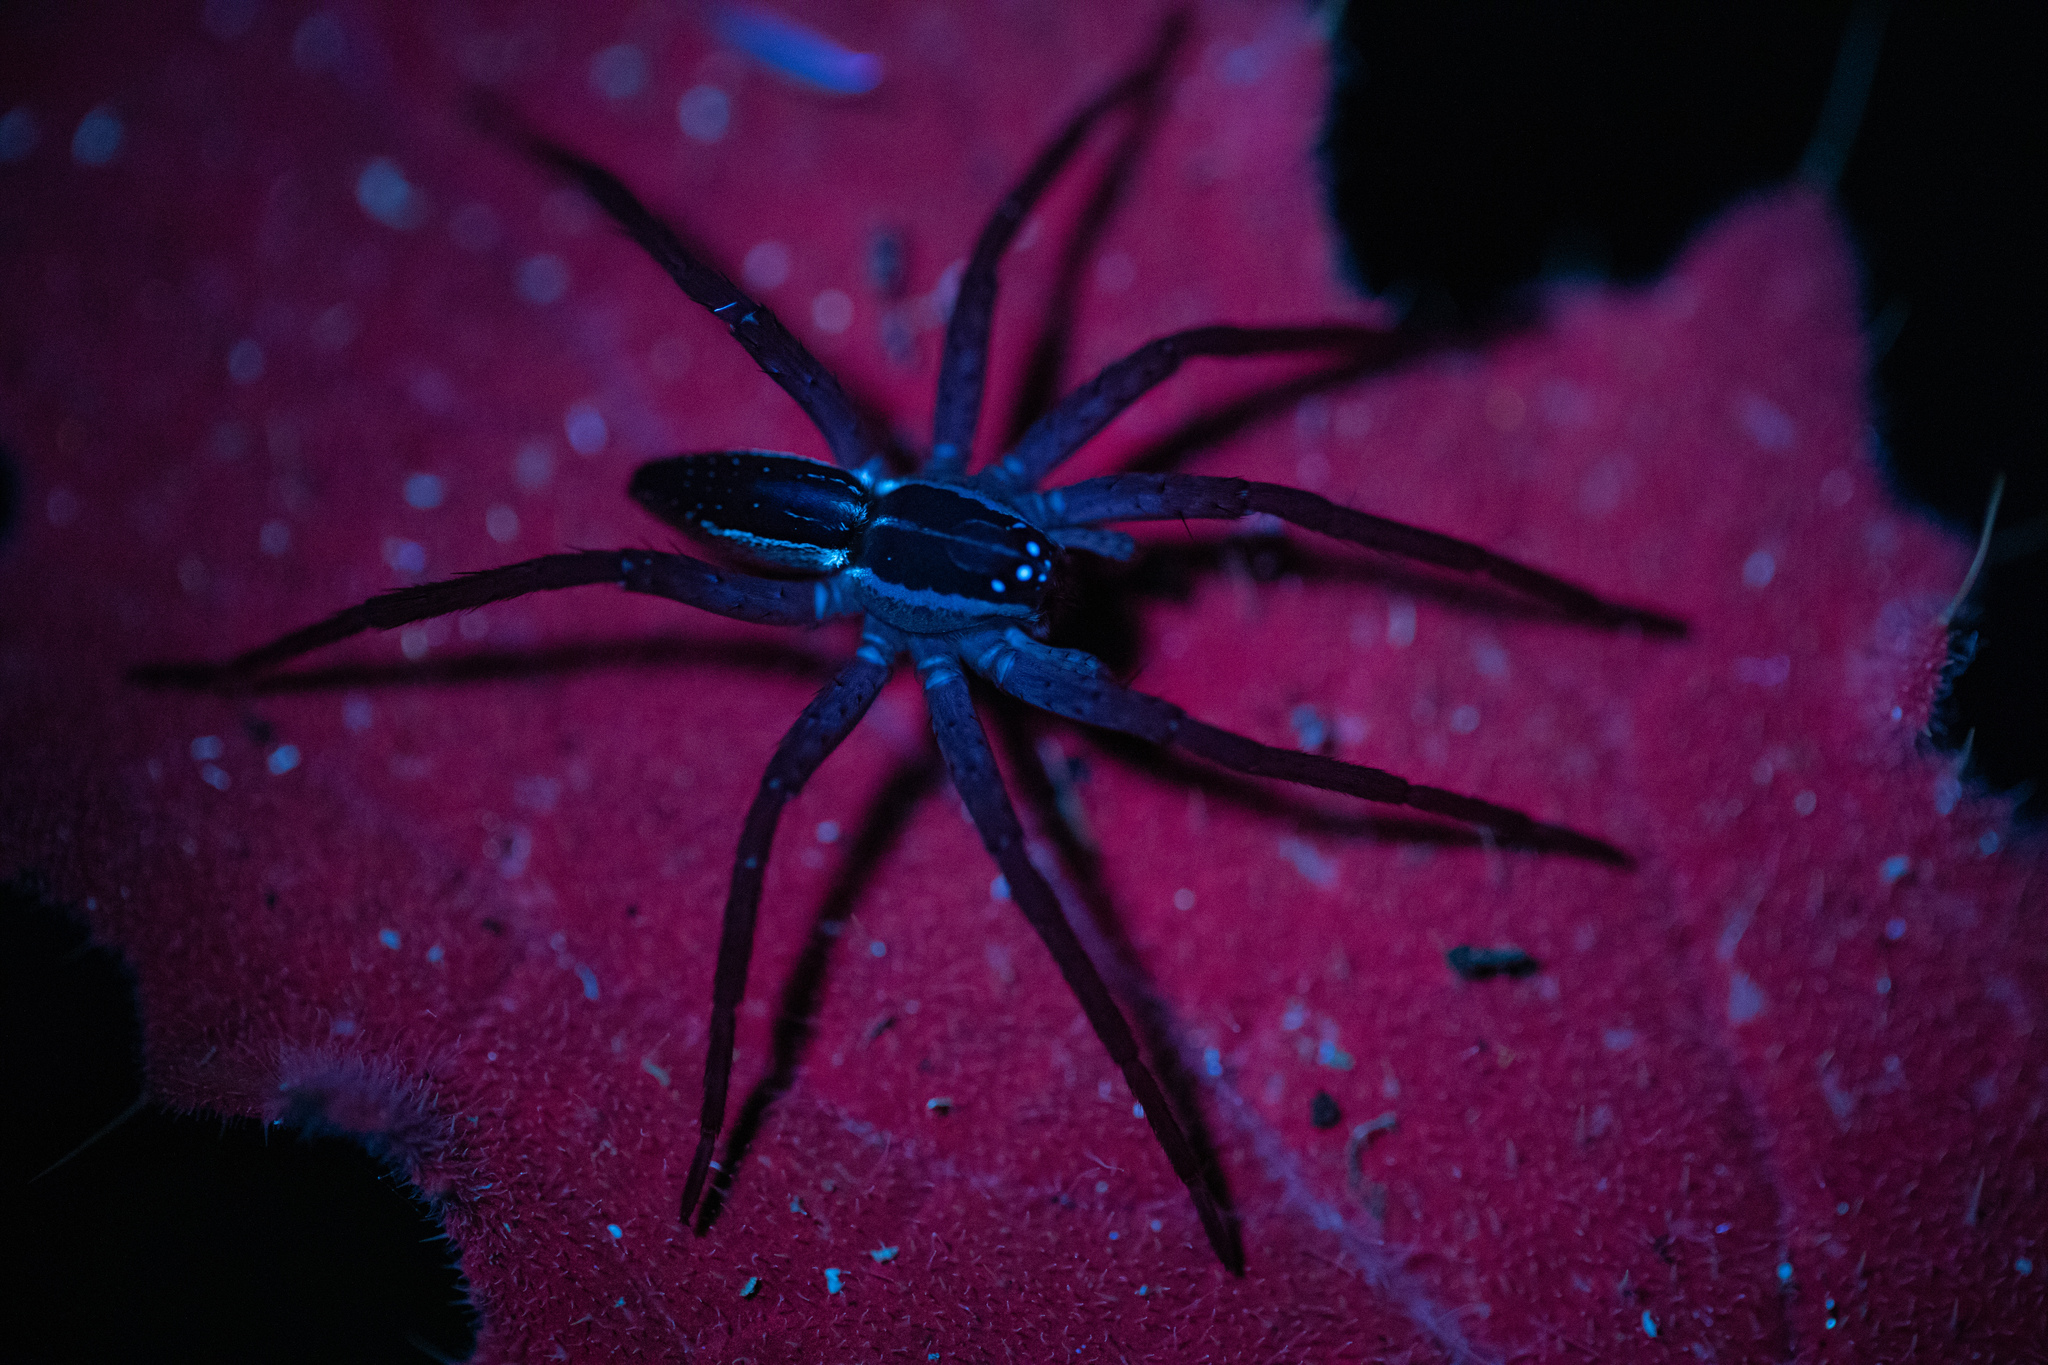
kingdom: Animalia
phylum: Arthropoda
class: Arachnida
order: Araneae
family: Pisauridae
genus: Dolomedes
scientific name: Dolomedes minor
